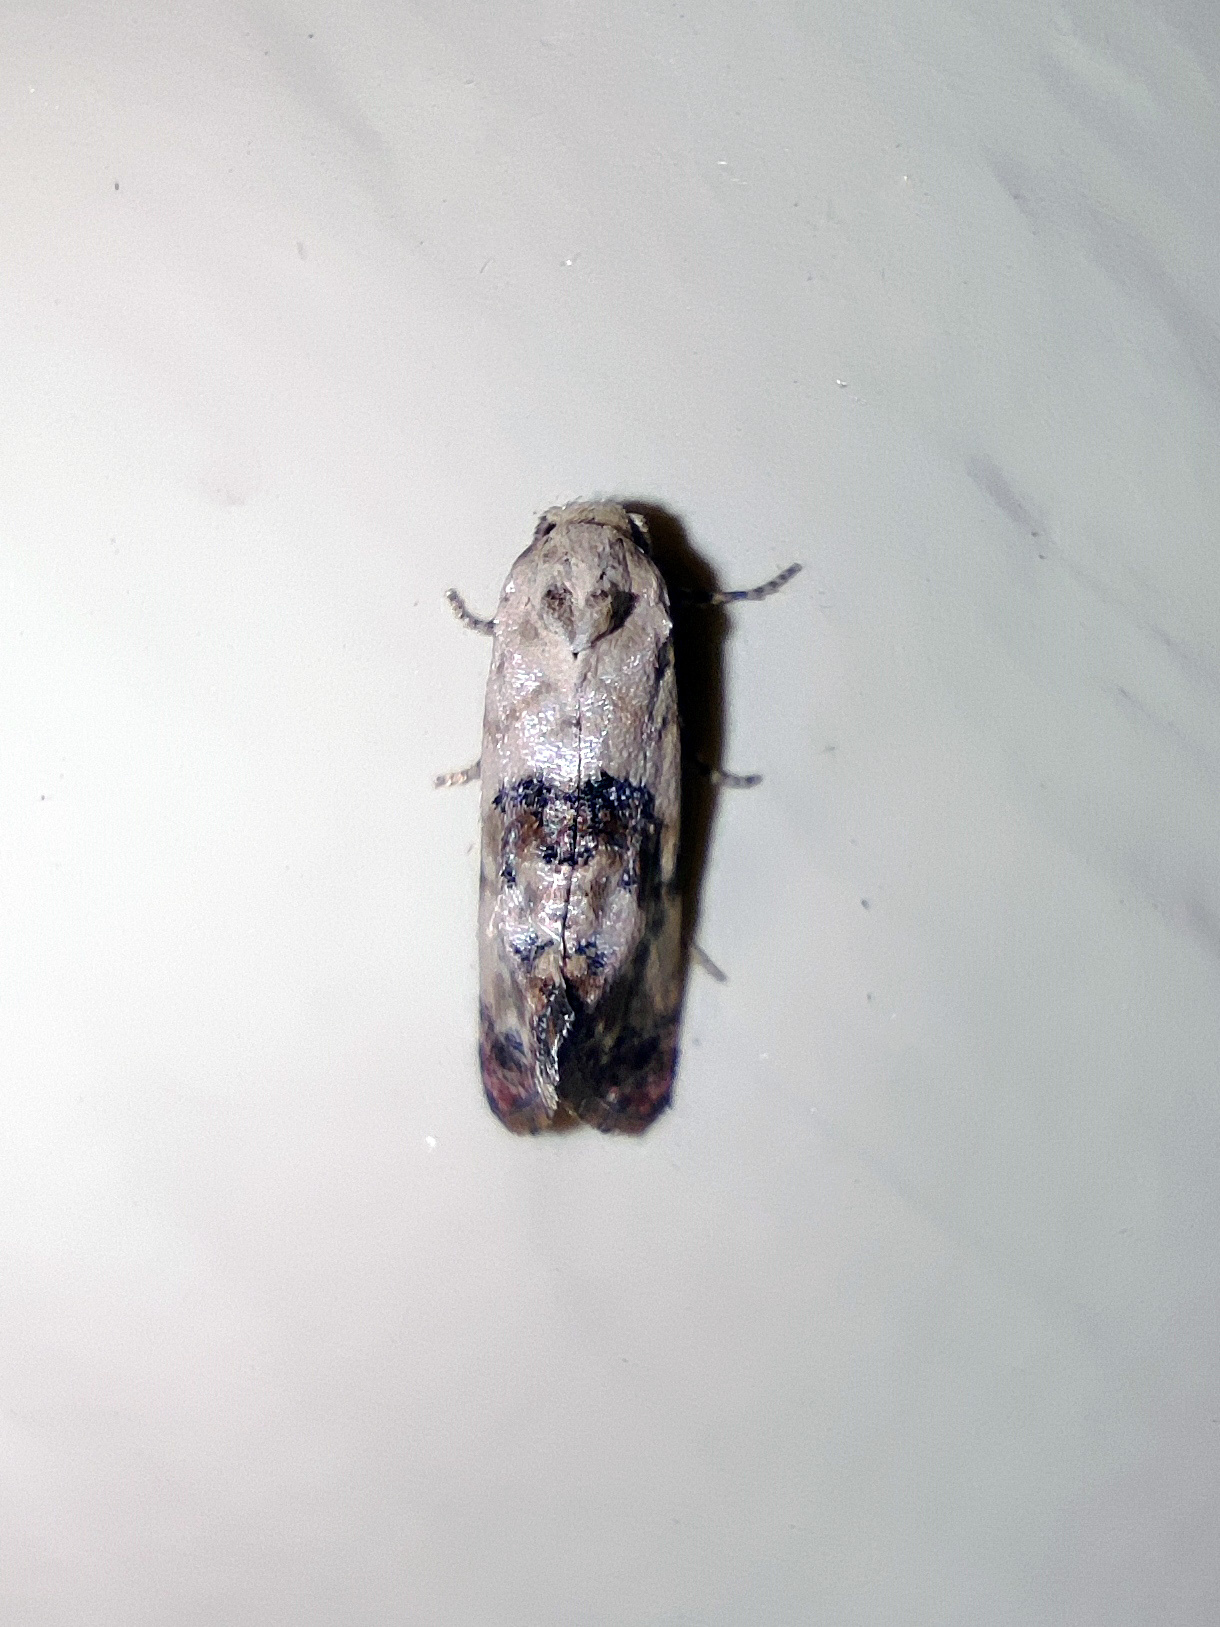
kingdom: Animalia
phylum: Arthropoda
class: Insecta
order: Lepidoptera
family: Tortricidae
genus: Cochylis
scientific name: Cochylis Pontoturania posterana
